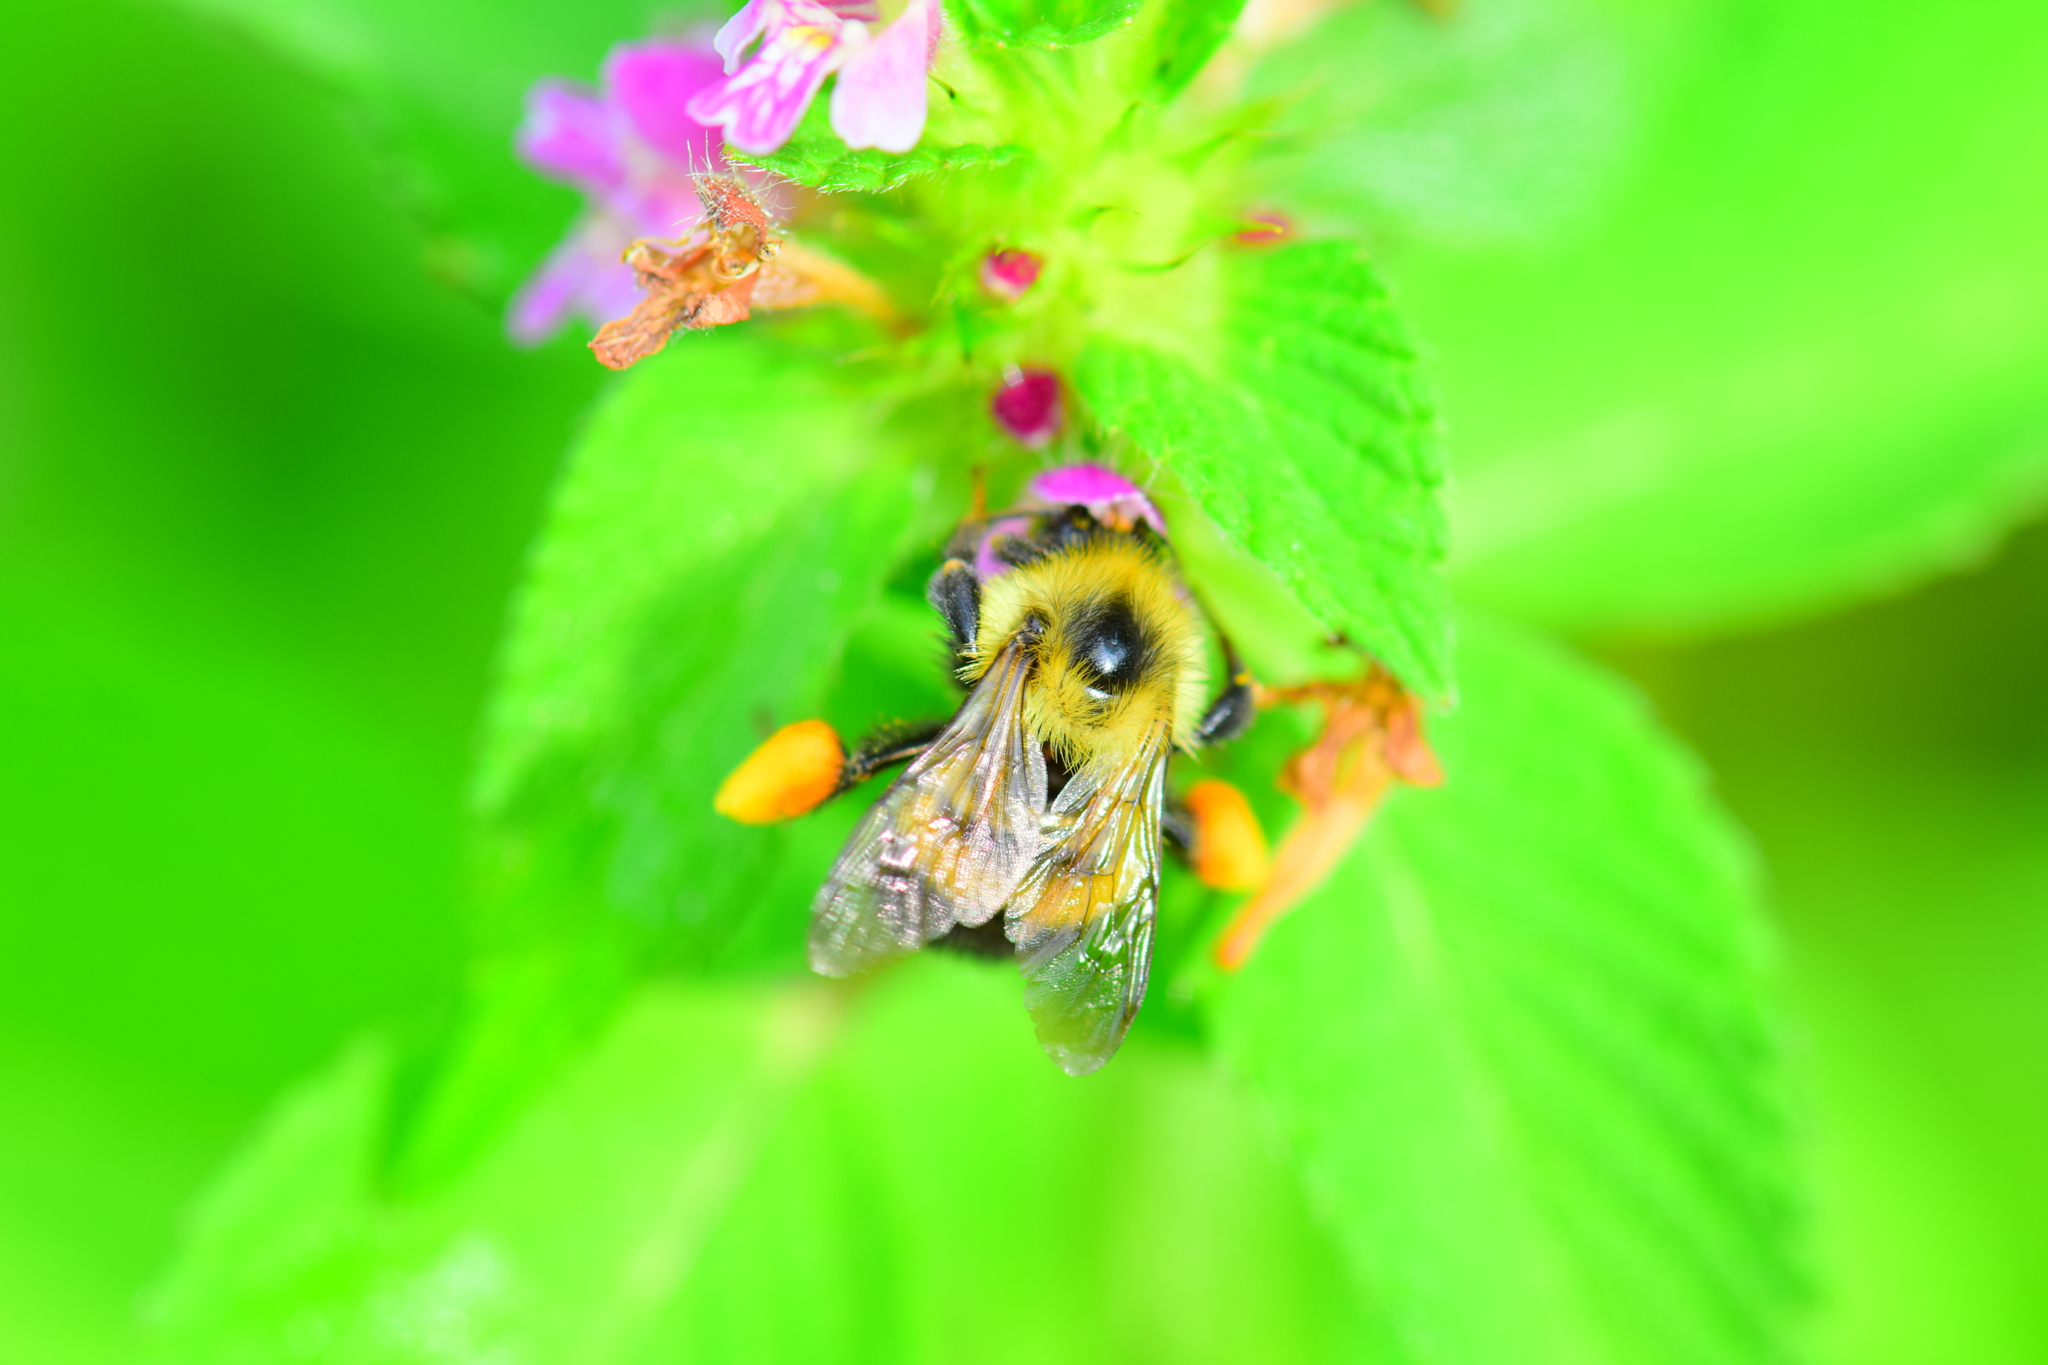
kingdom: Animalia
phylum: Arthropoda
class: Insecta
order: Hymenoptera
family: Apidae
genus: Bombus
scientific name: Bombus vagans
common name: Half-black bumble bee
